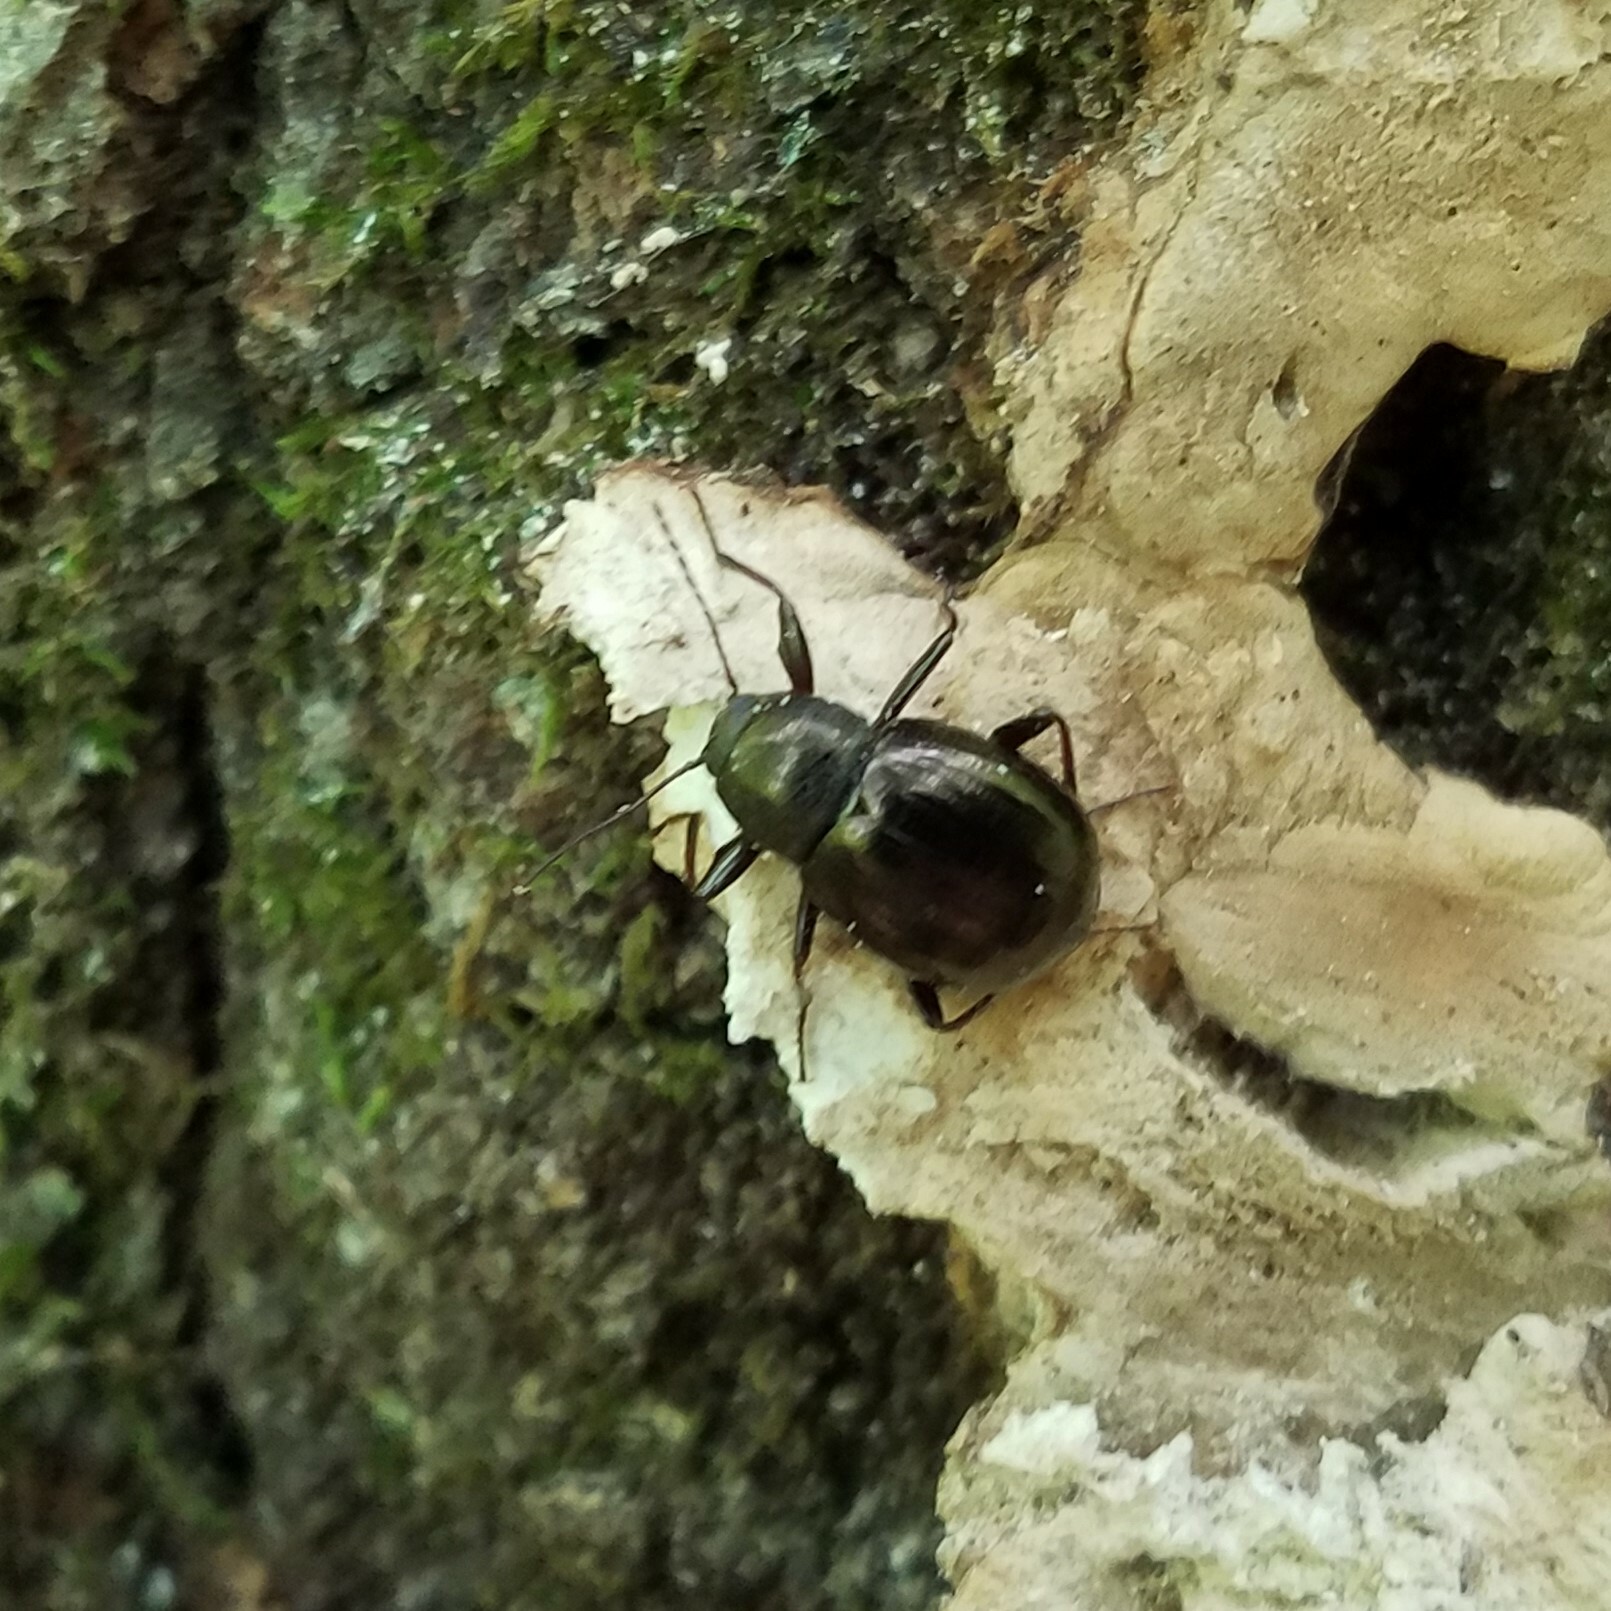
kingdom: Animalia
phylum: Arthropoda
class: Insecta
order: Coleoptera
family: Tenebrionidae
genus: Meracantha
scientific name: Meracantha contracta
